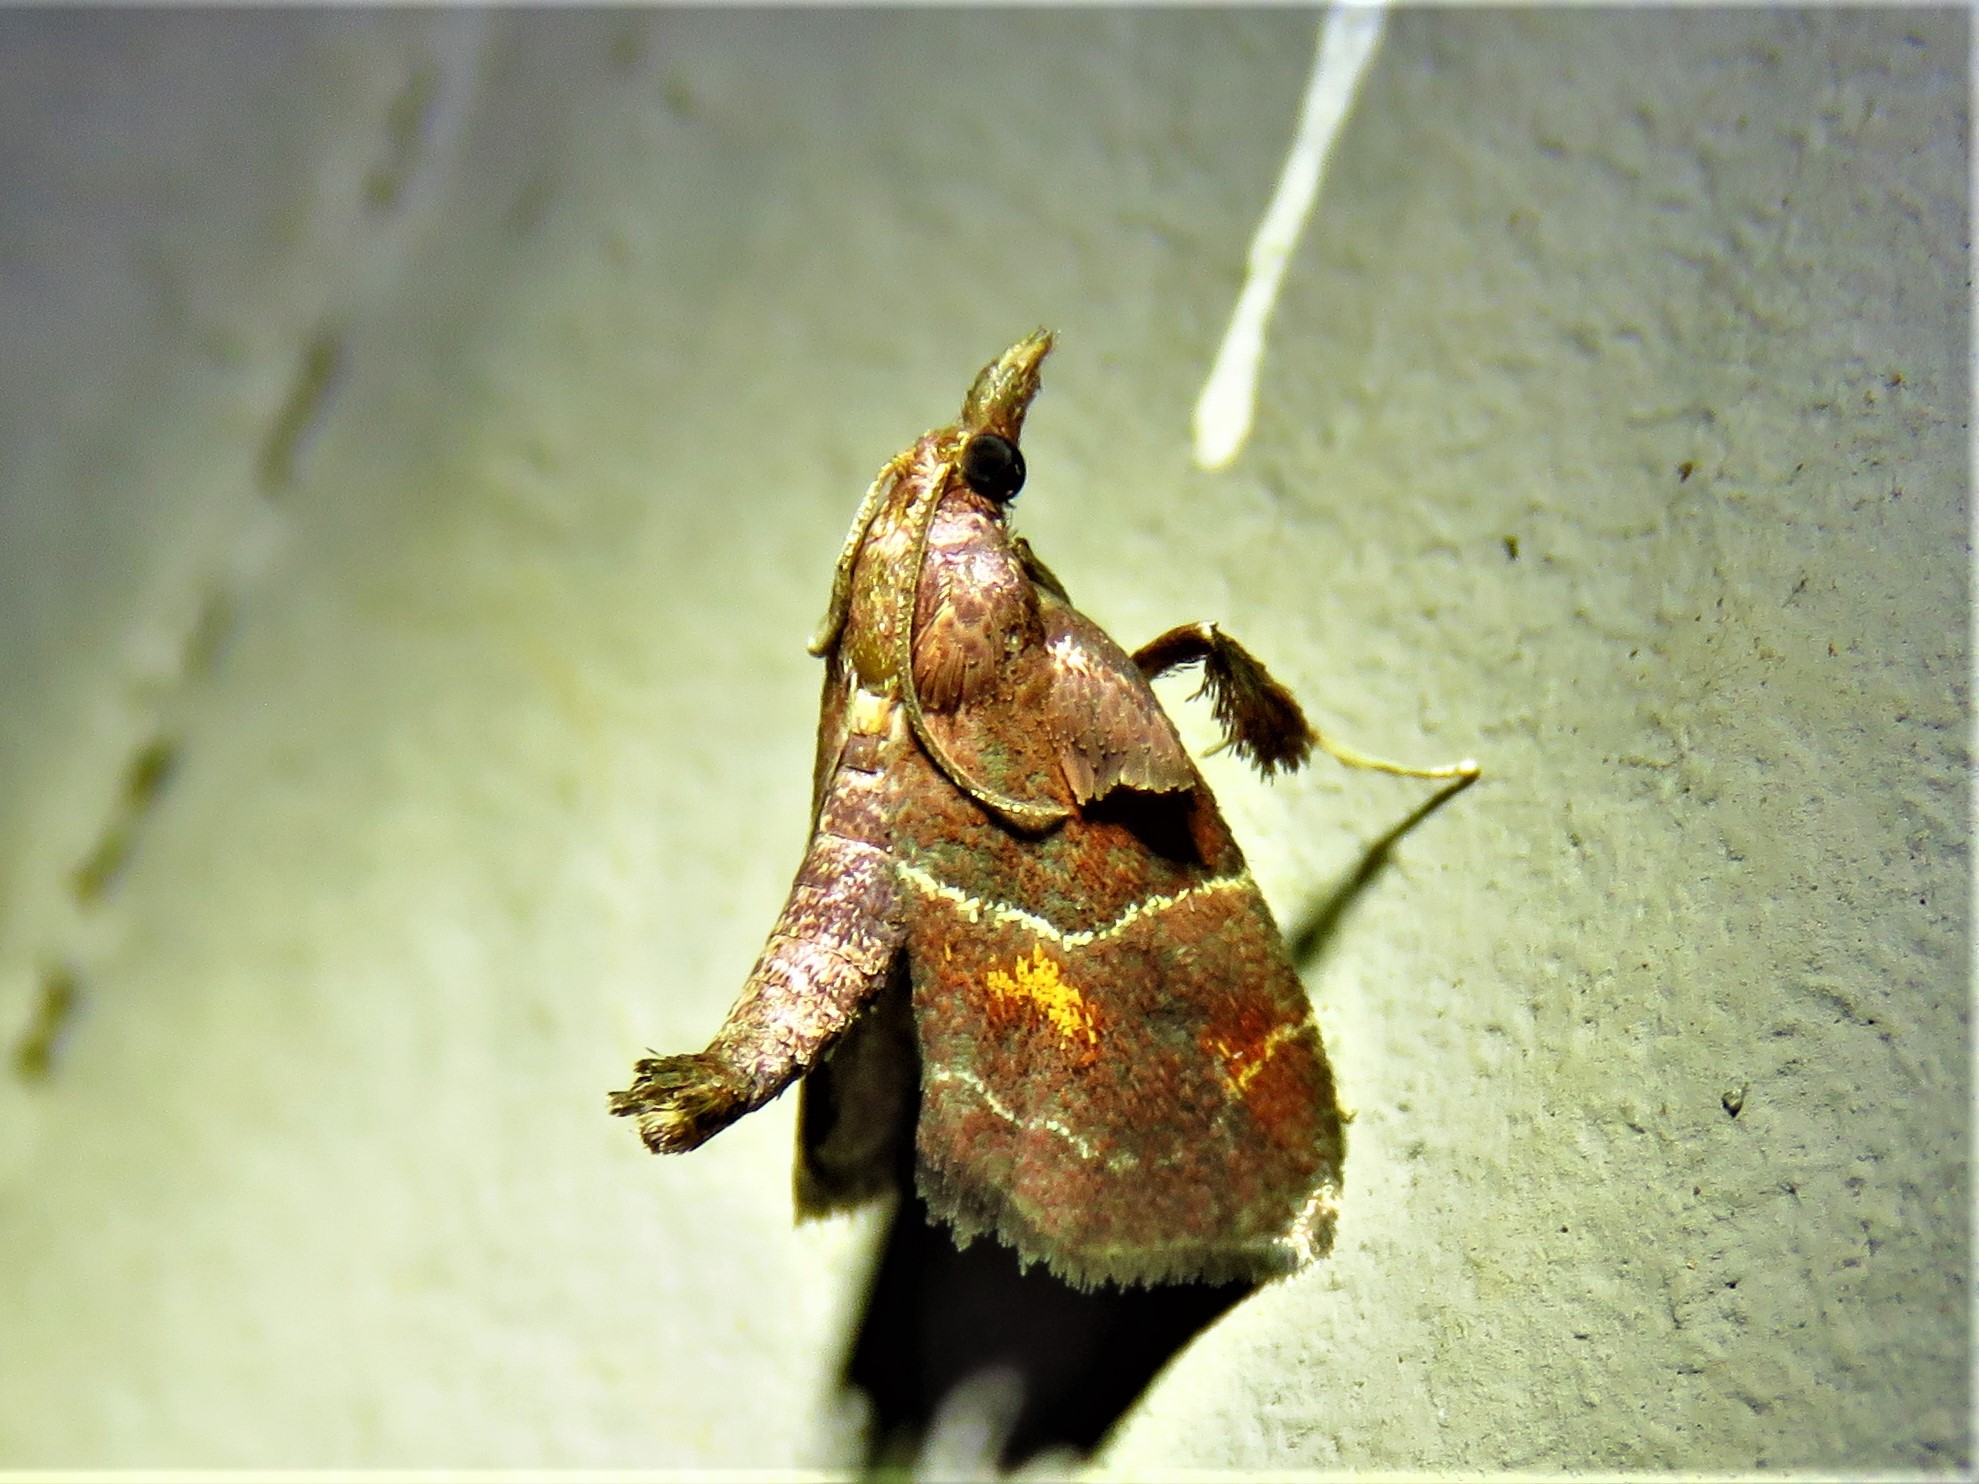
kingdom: Animalia
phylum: Arthropoda
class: Insecta
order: Lepidoptera
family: Pyralidae
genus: Penthesilea
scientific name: Penthesilea sacculalis
